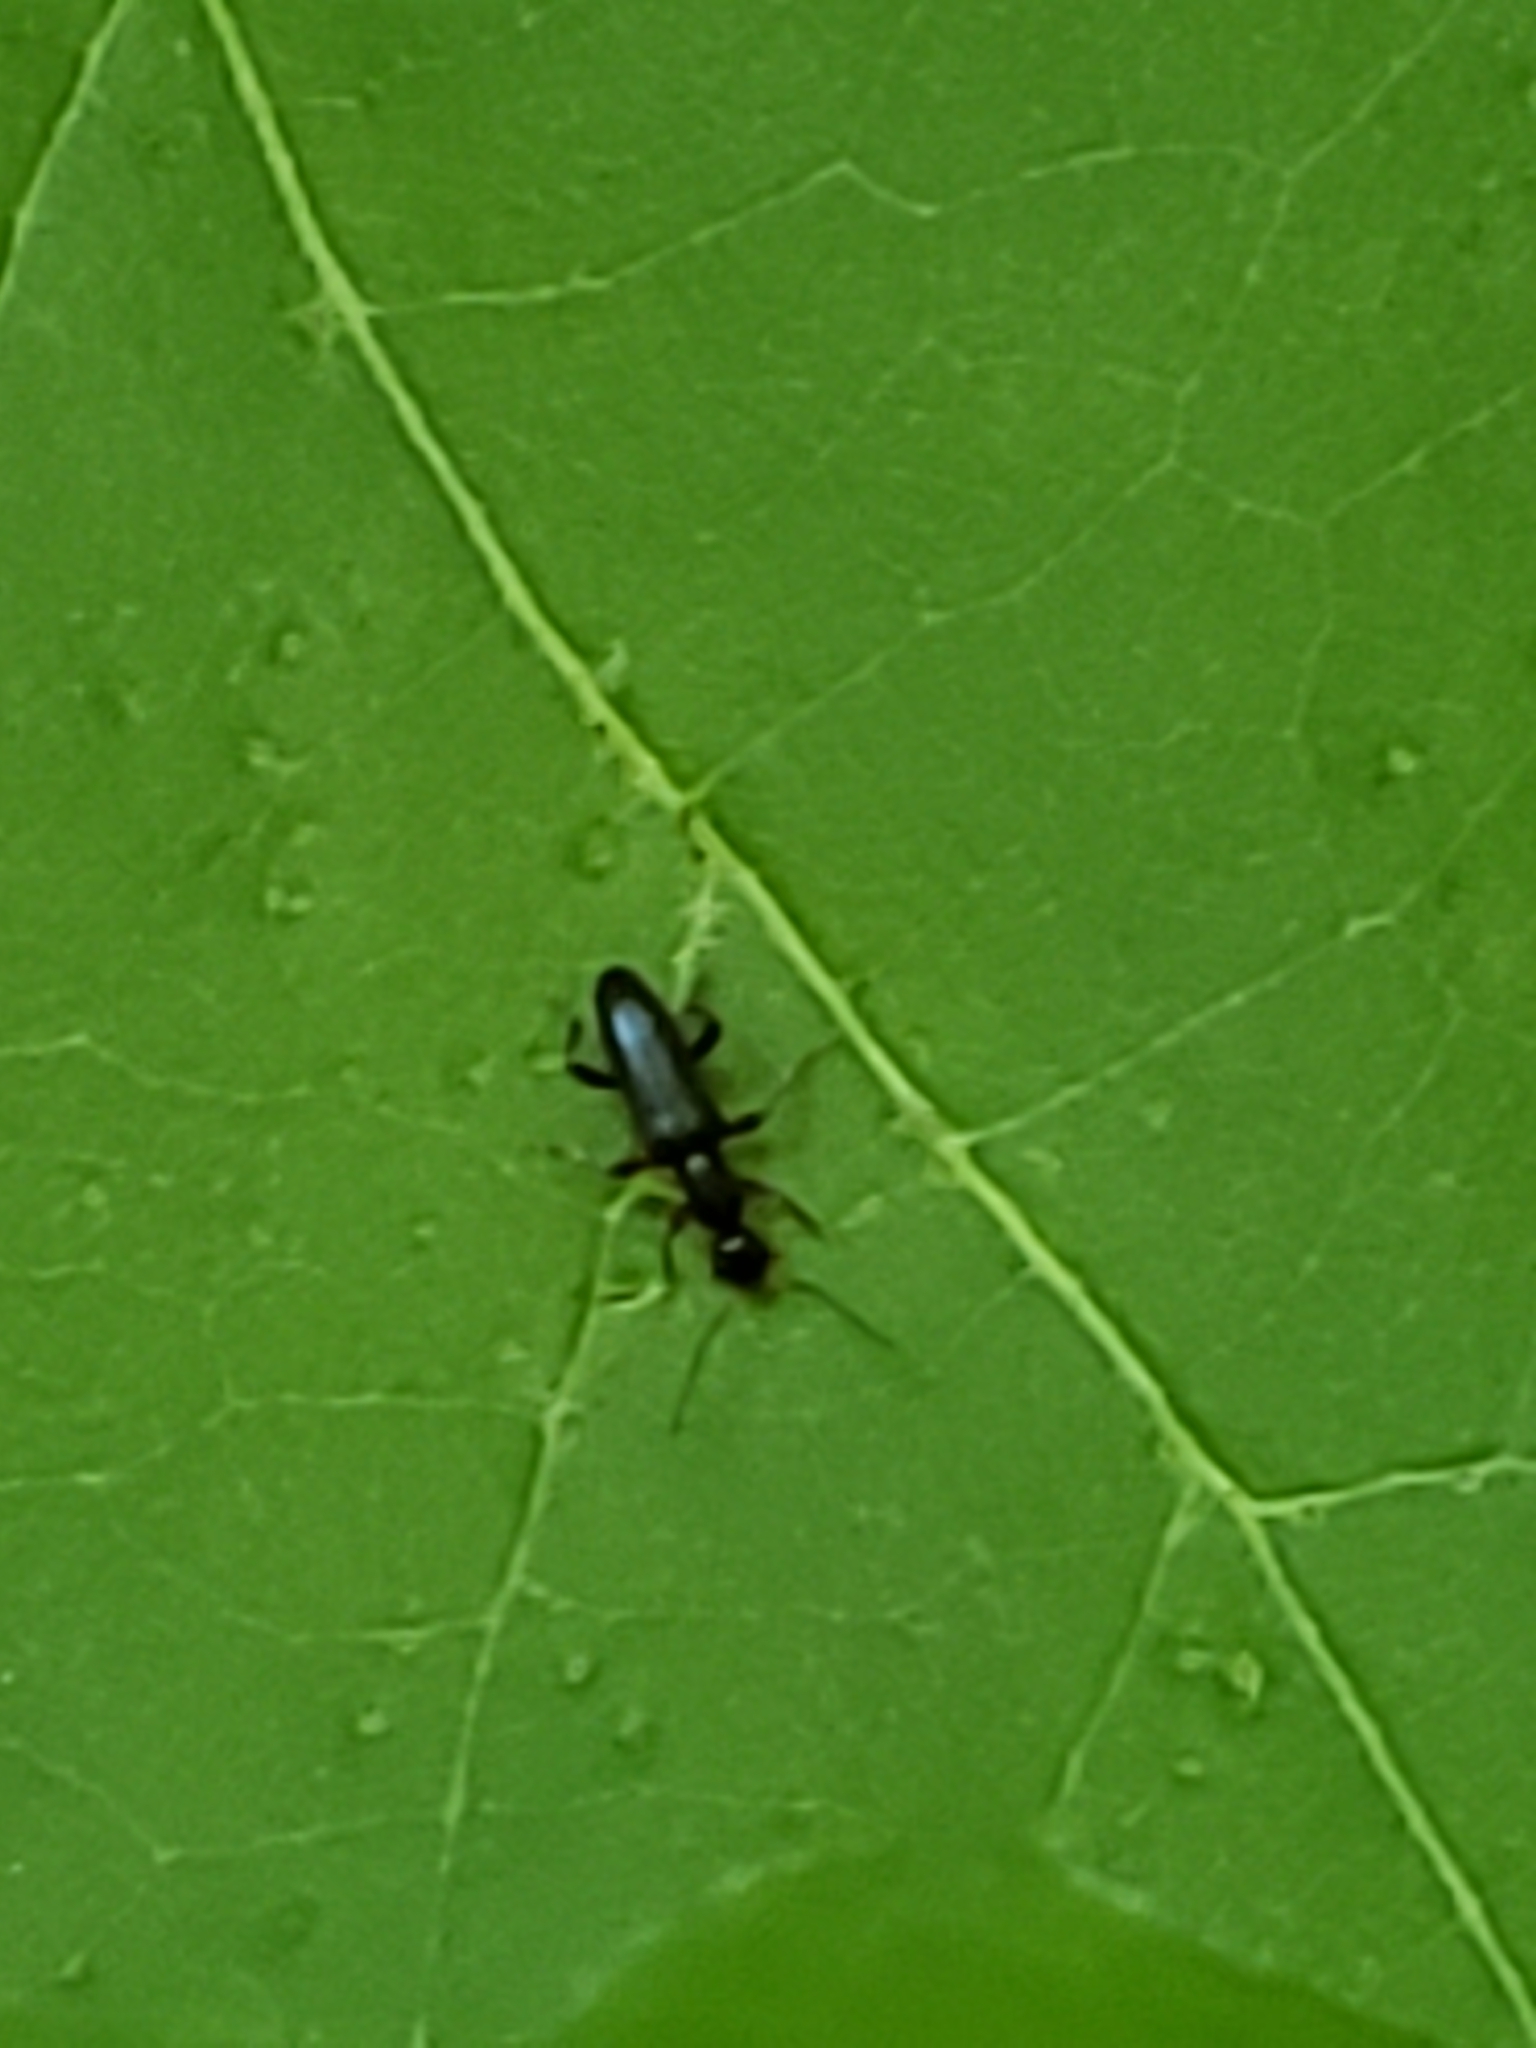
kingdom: Animalia
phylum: Arthropoda
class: Insecta
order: Coleoptera
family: Anthicidae
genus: Macratria
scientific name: Macratria confusa
